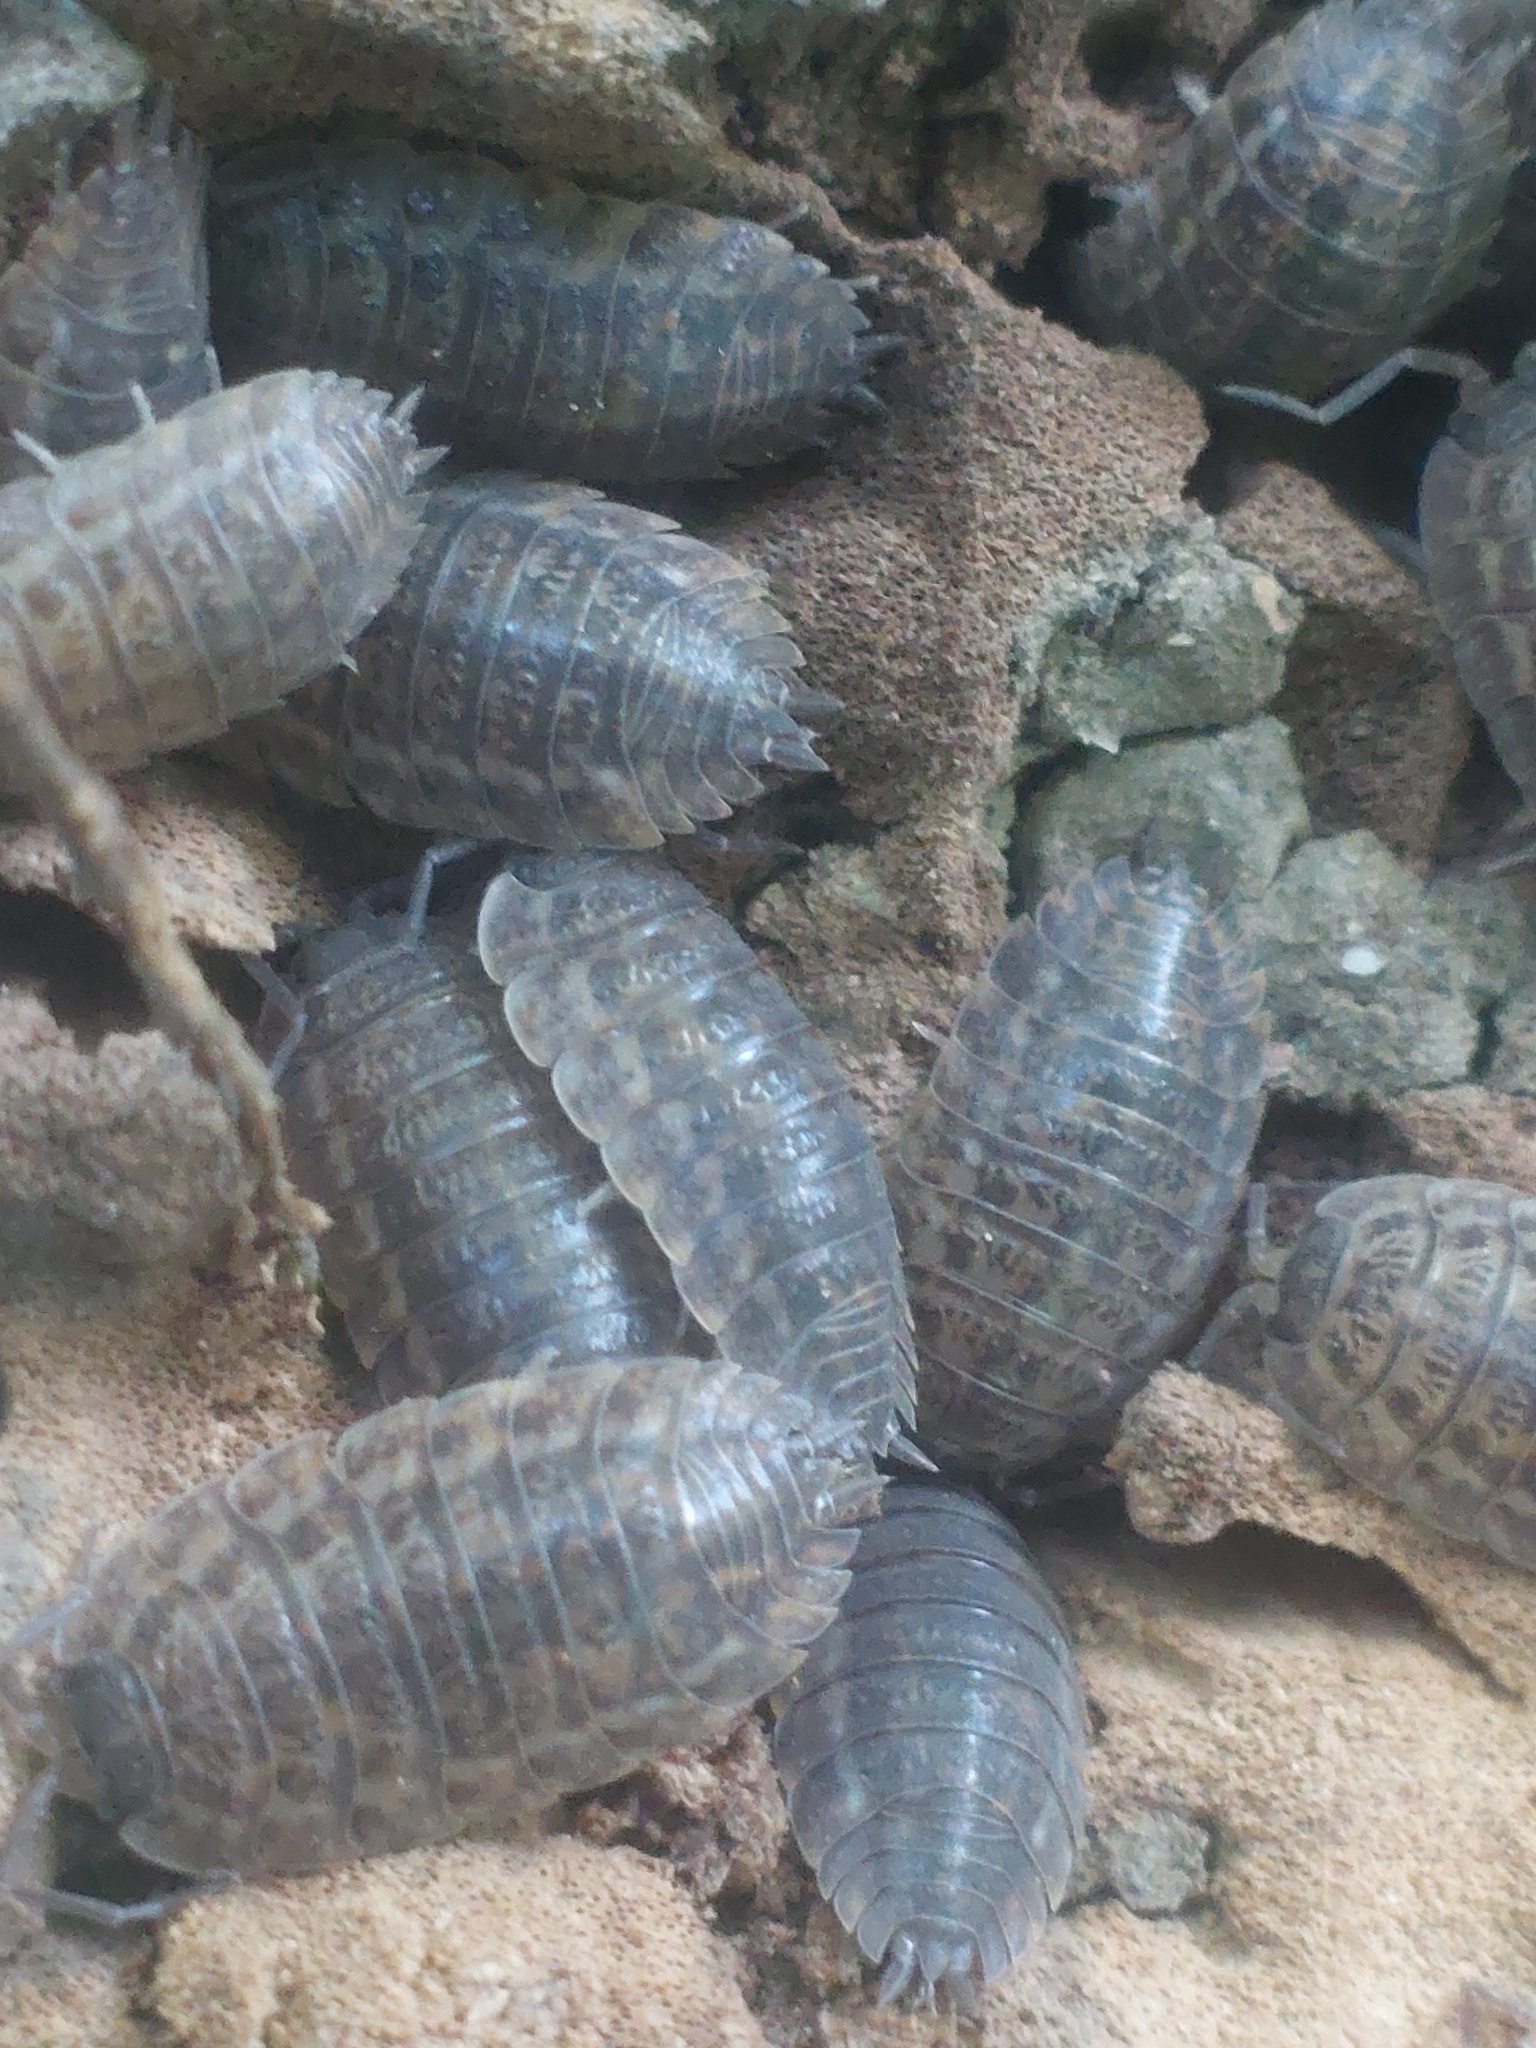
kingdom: Animalia
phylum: Arthropoda
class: Malacostraca
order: Isopoda
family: Trachelipodidae
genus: Trachelipus
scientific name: Trachelipus rathkii
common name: Isopod
